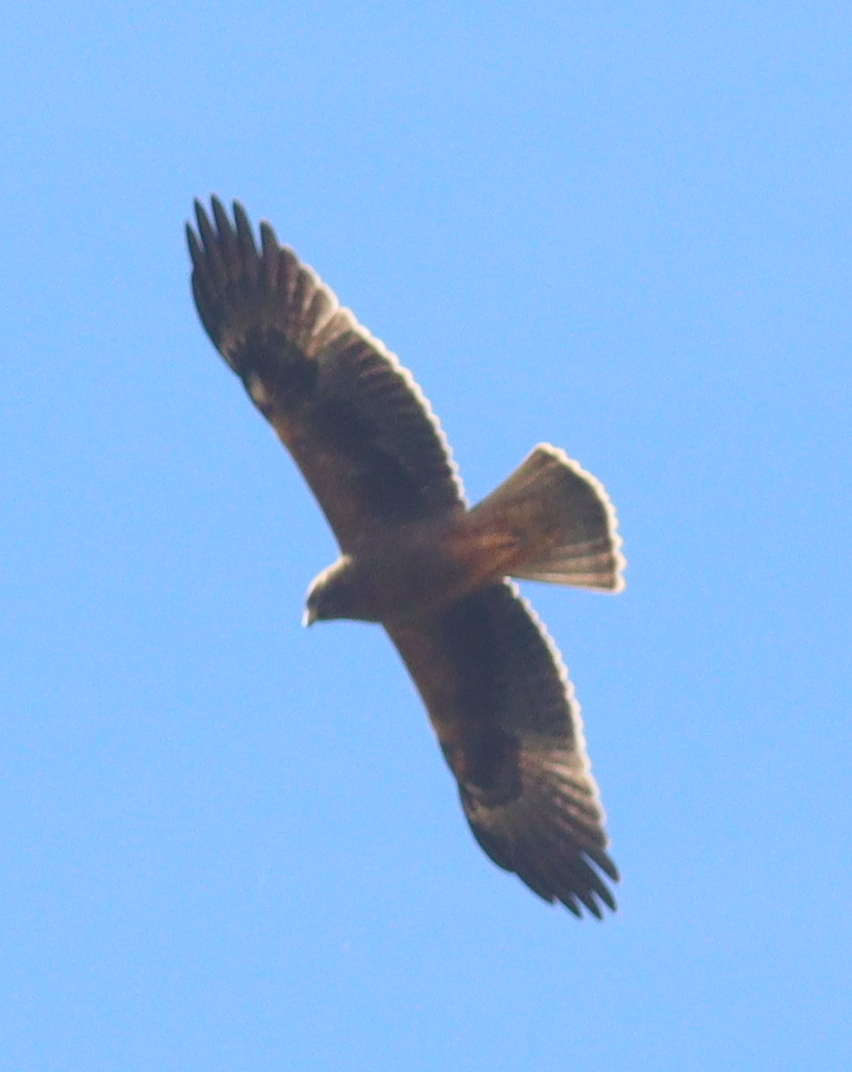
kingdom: Animalia
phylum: Chordata
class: Aves
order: Accipitriformes
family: Accipitridae
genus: Hieraaetus
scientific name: Hieraaetus pennatus
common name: Booted eagle
